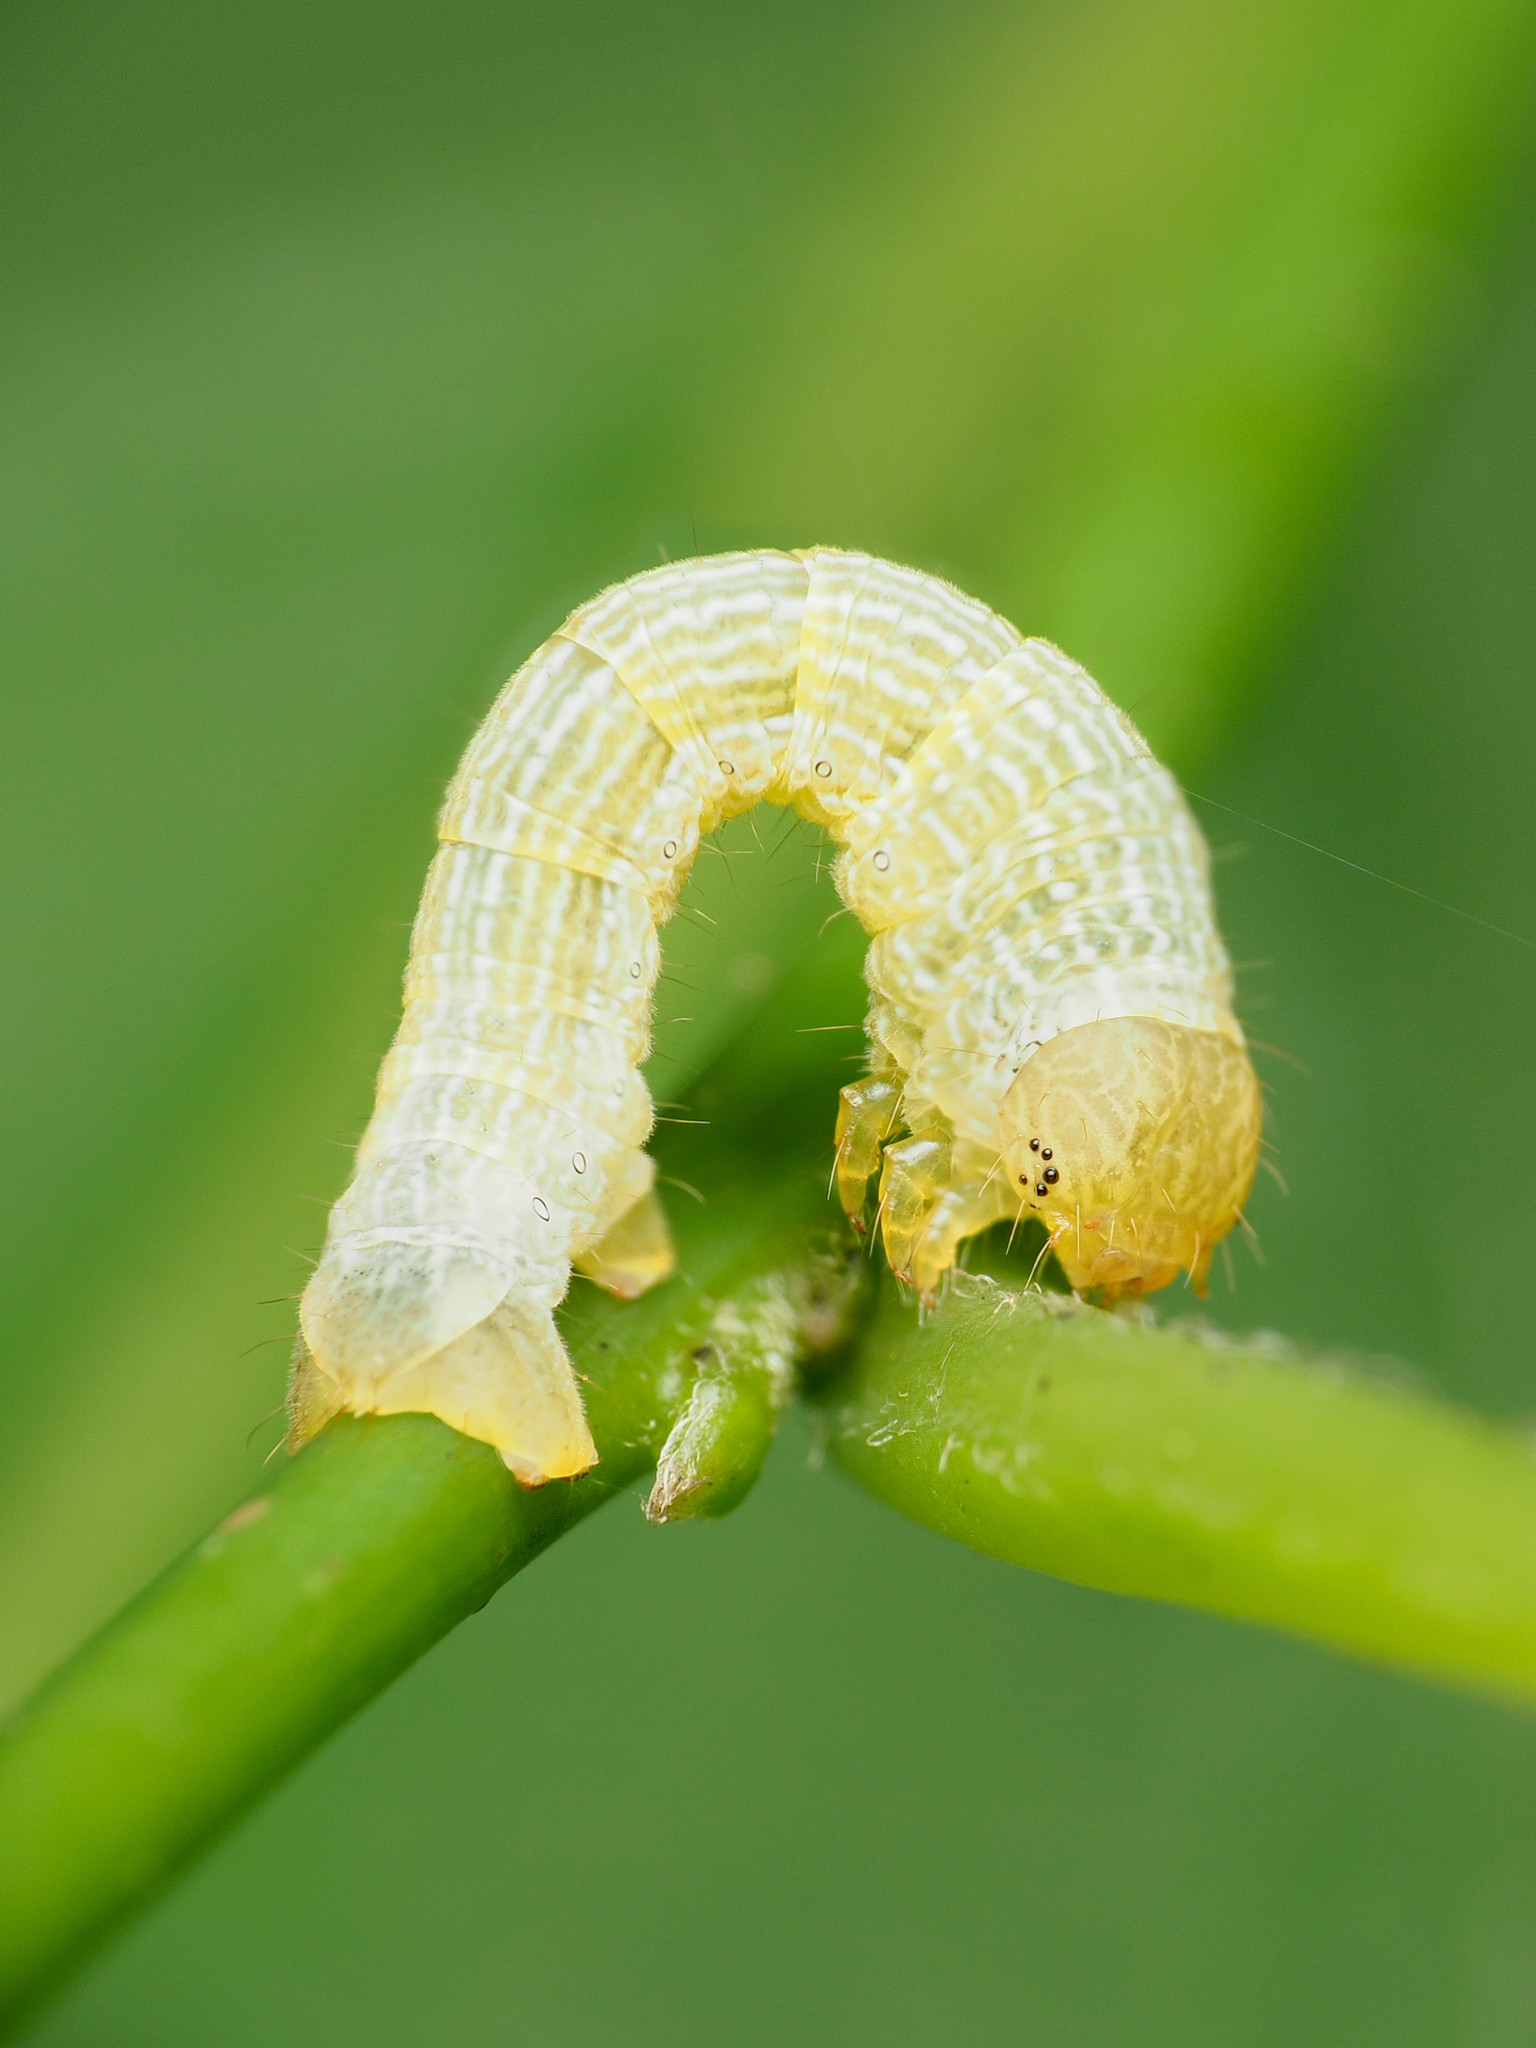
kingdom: Animalia
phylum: Arthropoda
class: Insecta
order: Lepidoptera
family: Geometridae
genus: Epimecis
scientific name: Epimecis hortaria
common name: Tulip-tree beauty
